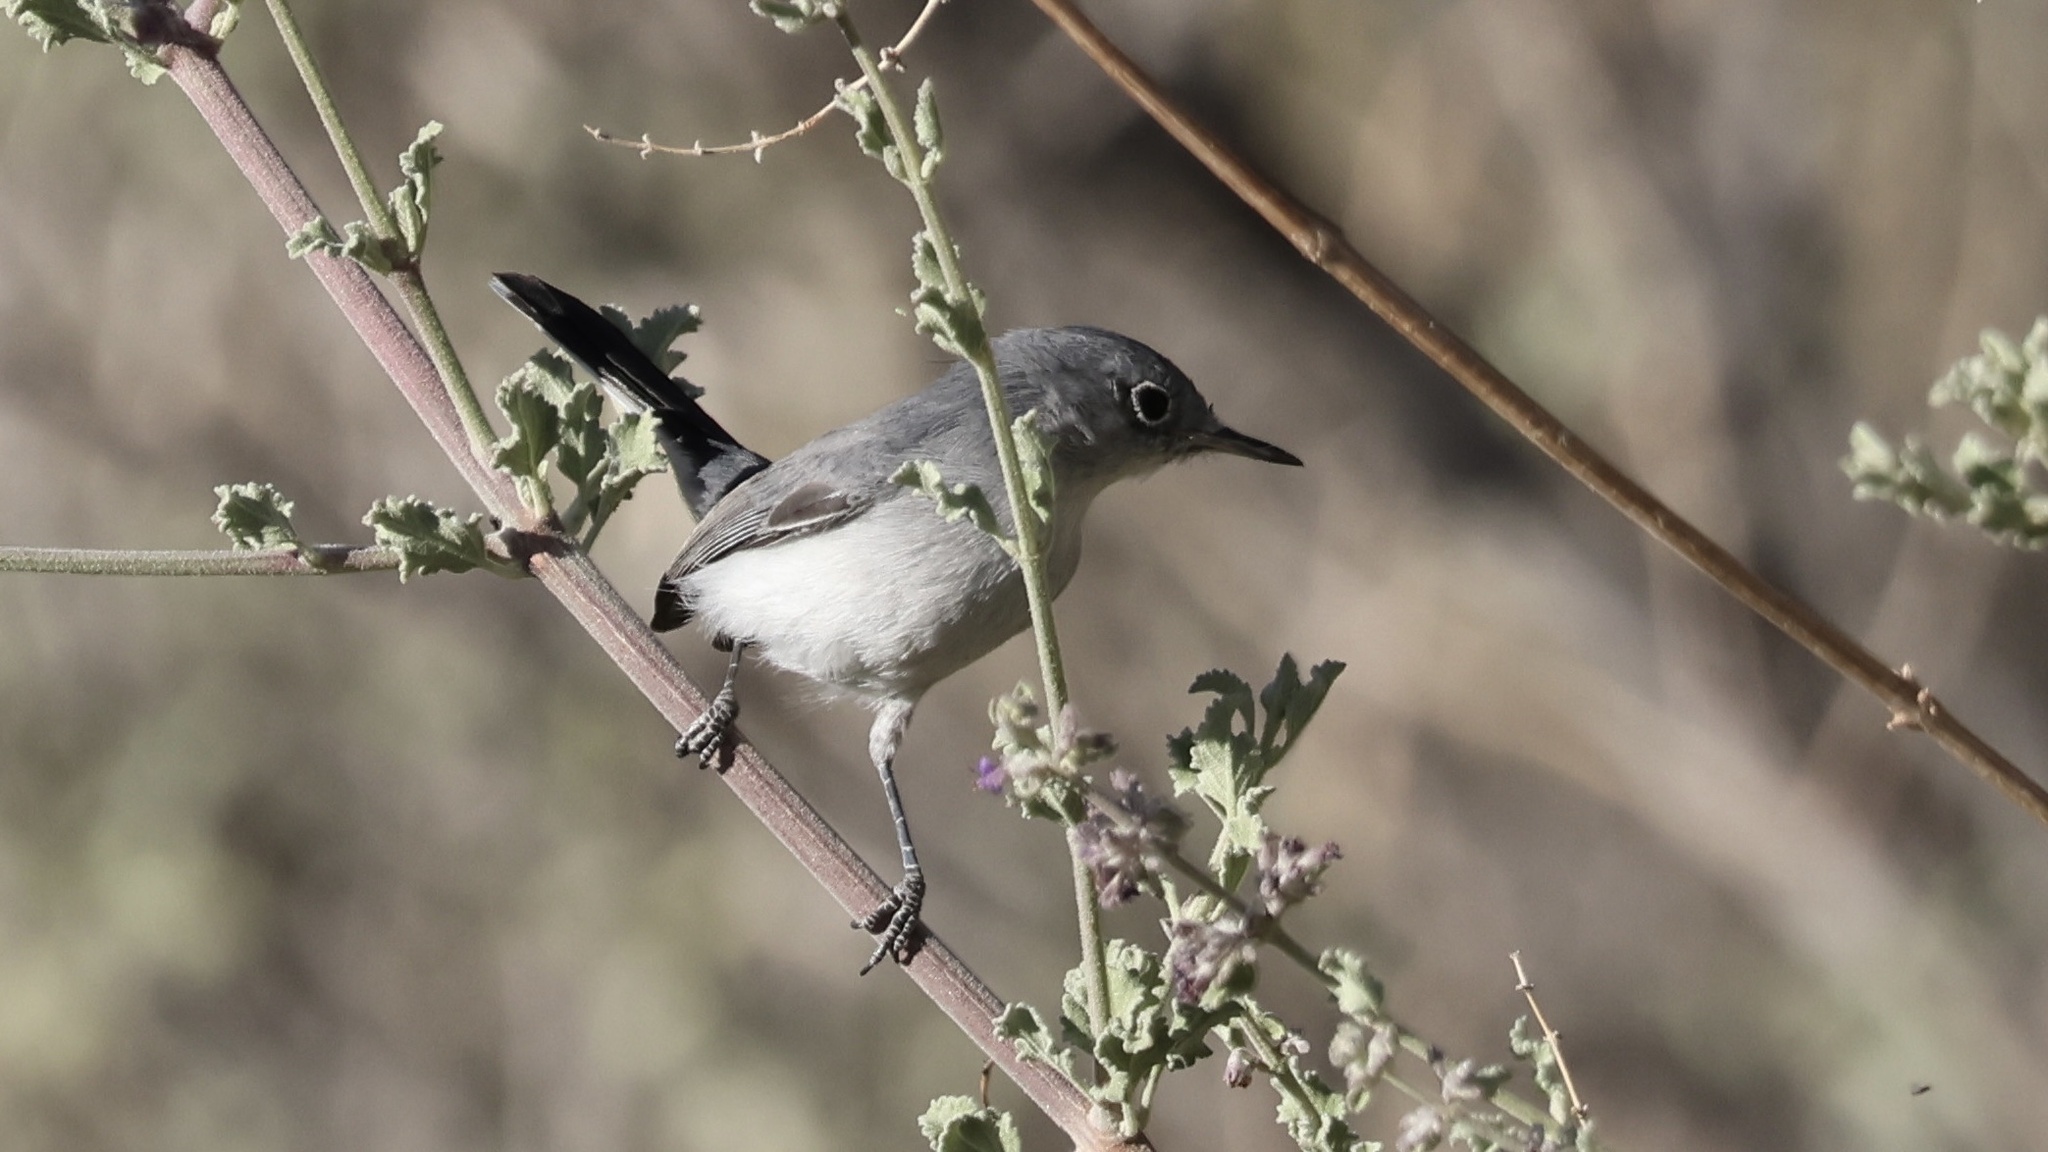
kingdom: Animalia
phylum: Chordata
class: Aves
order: Passeriformes
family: Polioptilidae
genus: Polioptila
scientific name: Polioptila caerulea
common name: Blue-gray gnatcatcher
